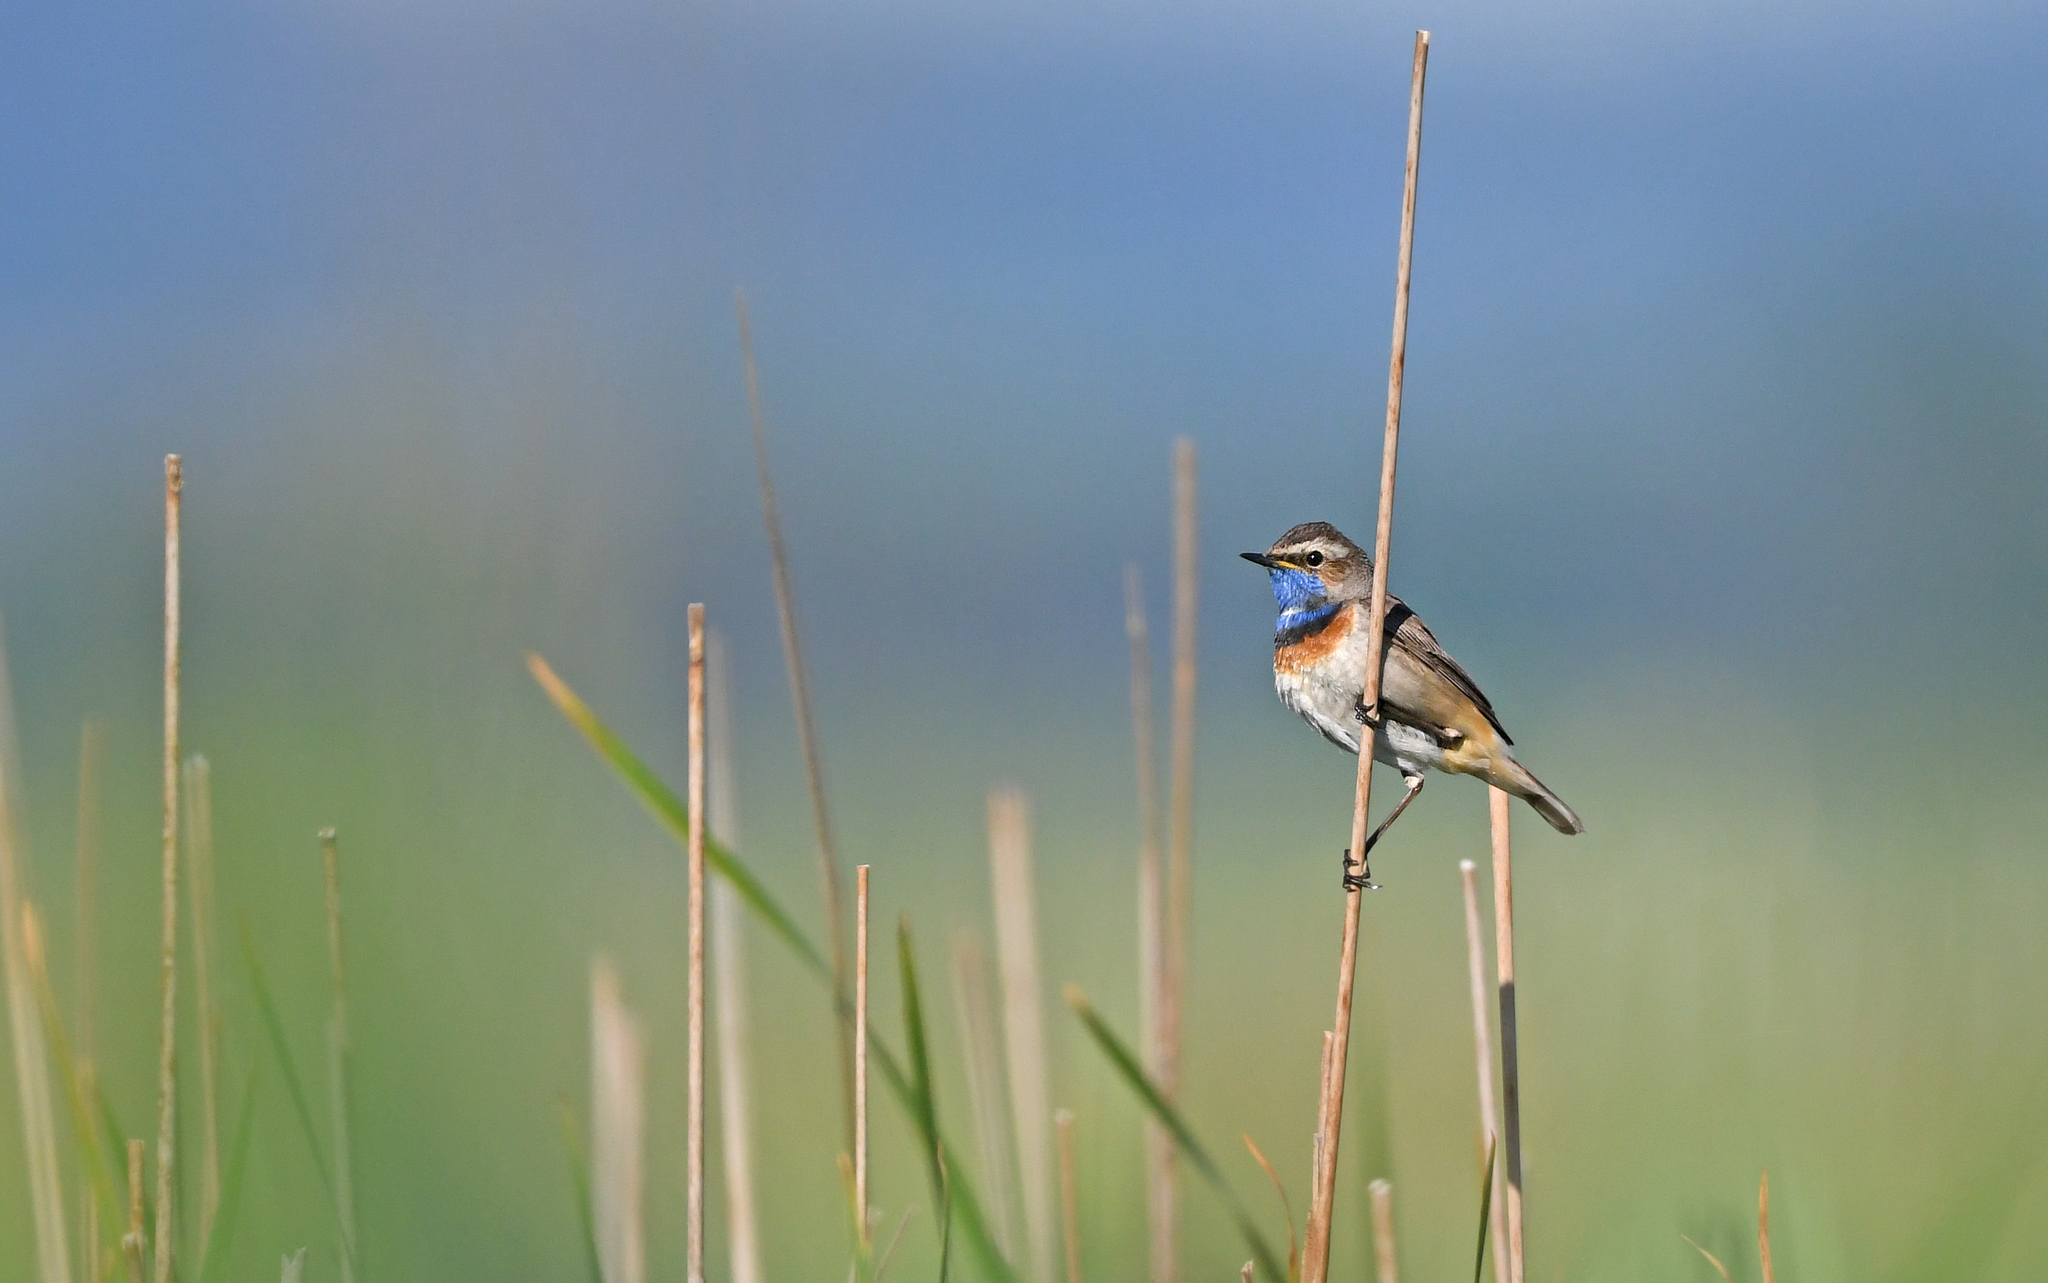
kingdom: Animalia
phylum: Chordata
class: Aves
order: Passeriformes
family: Muscicapidae
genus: Luscinia
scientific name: Luscinia svecica
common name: Bluethroat
